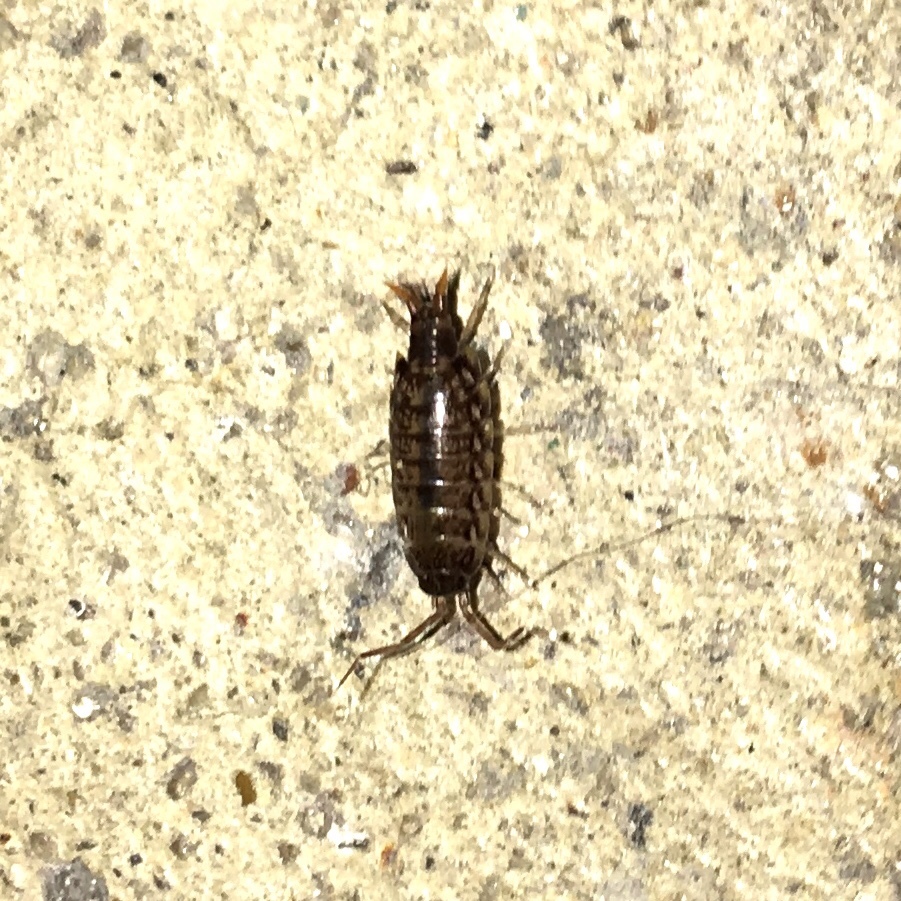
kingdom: Animalia
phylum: Arthropoda
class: Malacostraca
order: Isopoda
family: Philosciidae
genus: Atlantoscia
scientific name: Atlantoscia floridana
